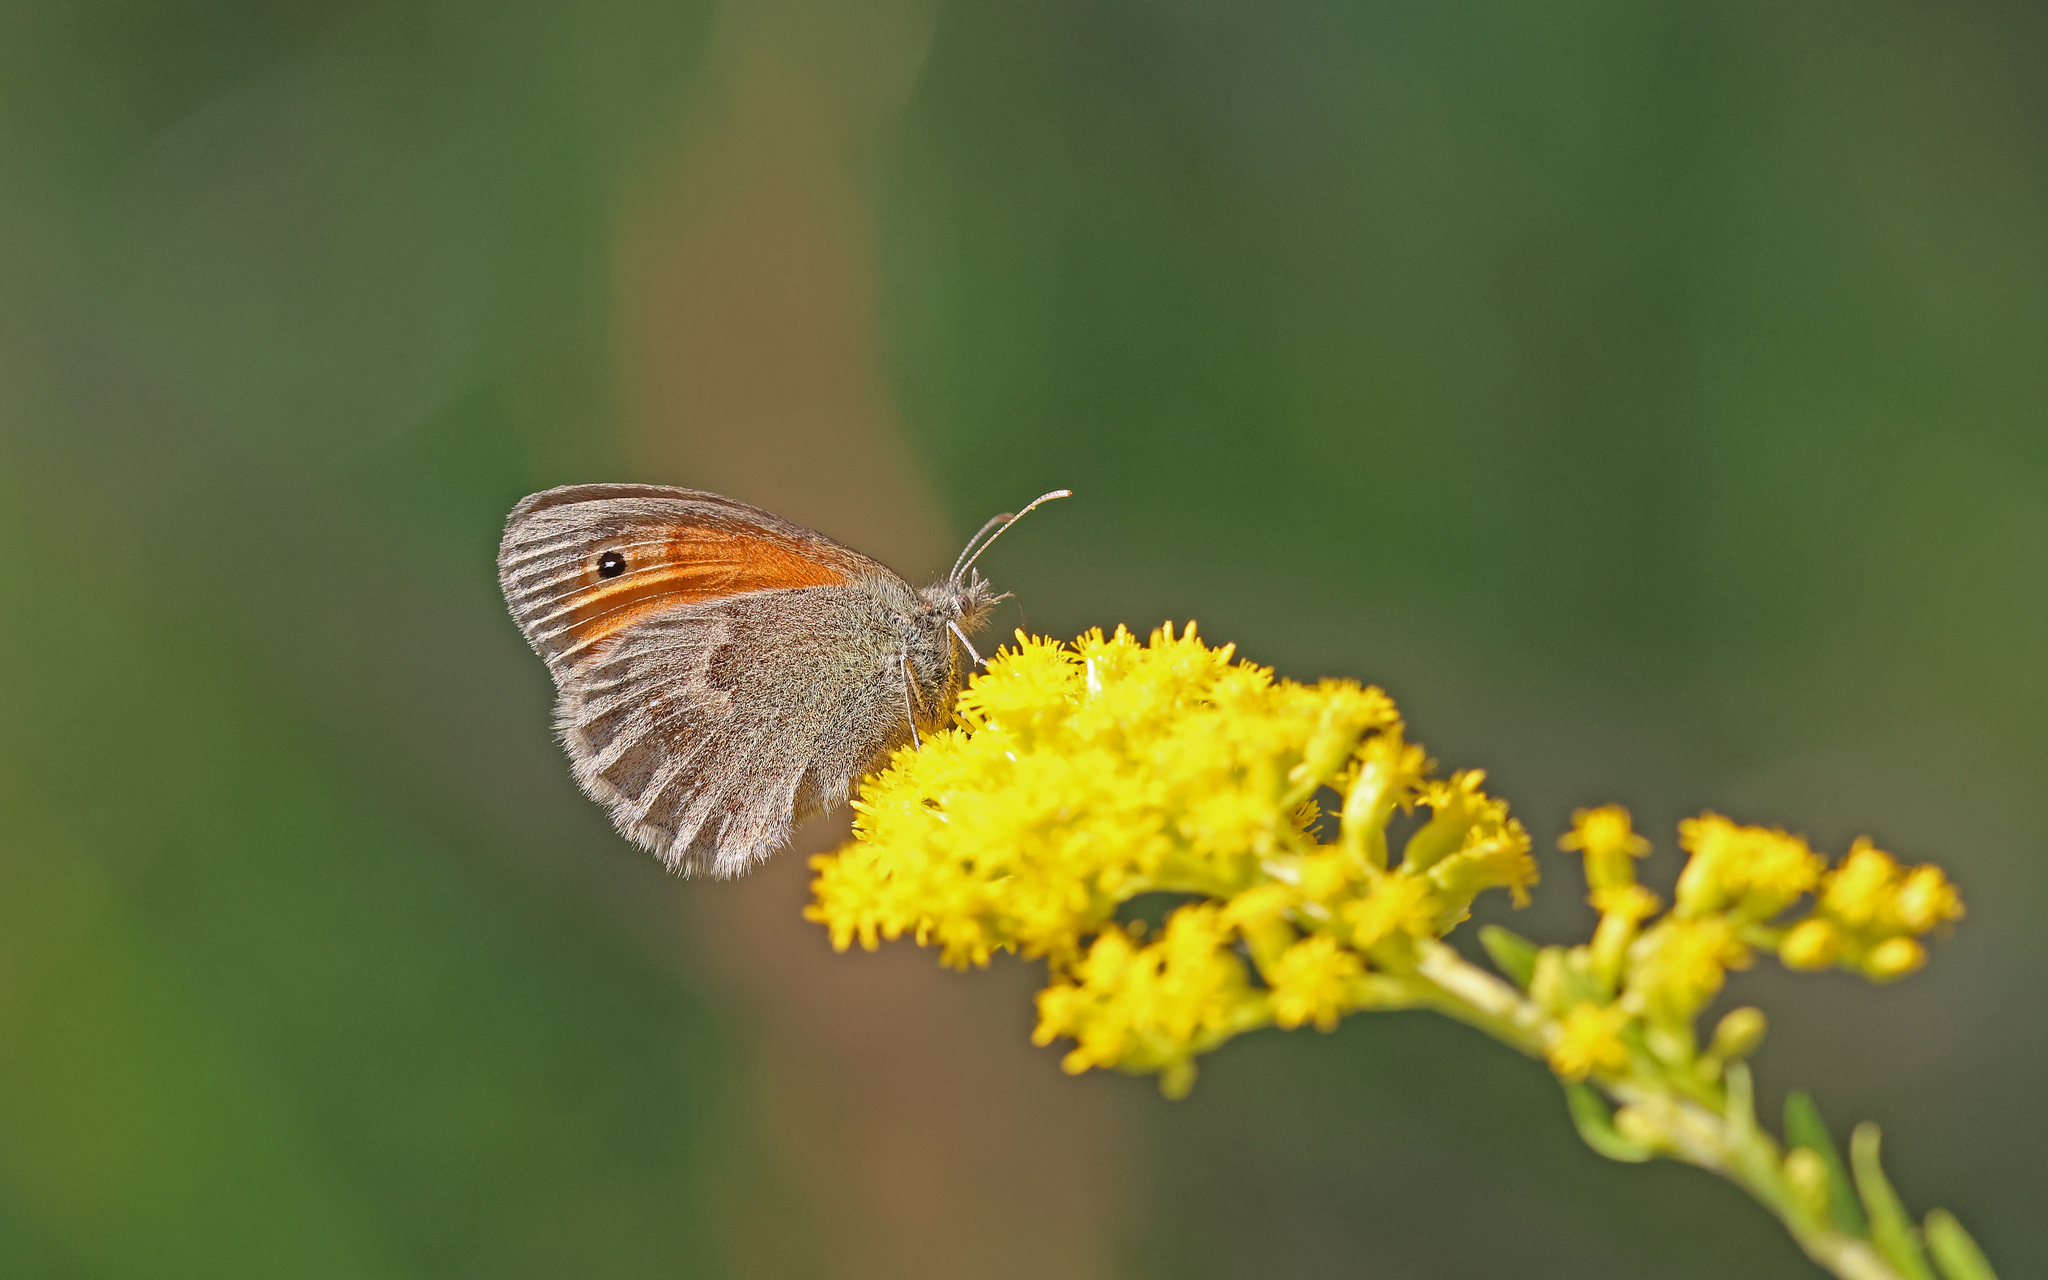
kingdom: Animalia
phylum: Arthropoda
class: Insecta
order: Lepidoptera
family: Nymphalidae
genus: Coenonympha
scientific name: Coenonympha pamphilus
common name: Small heath
